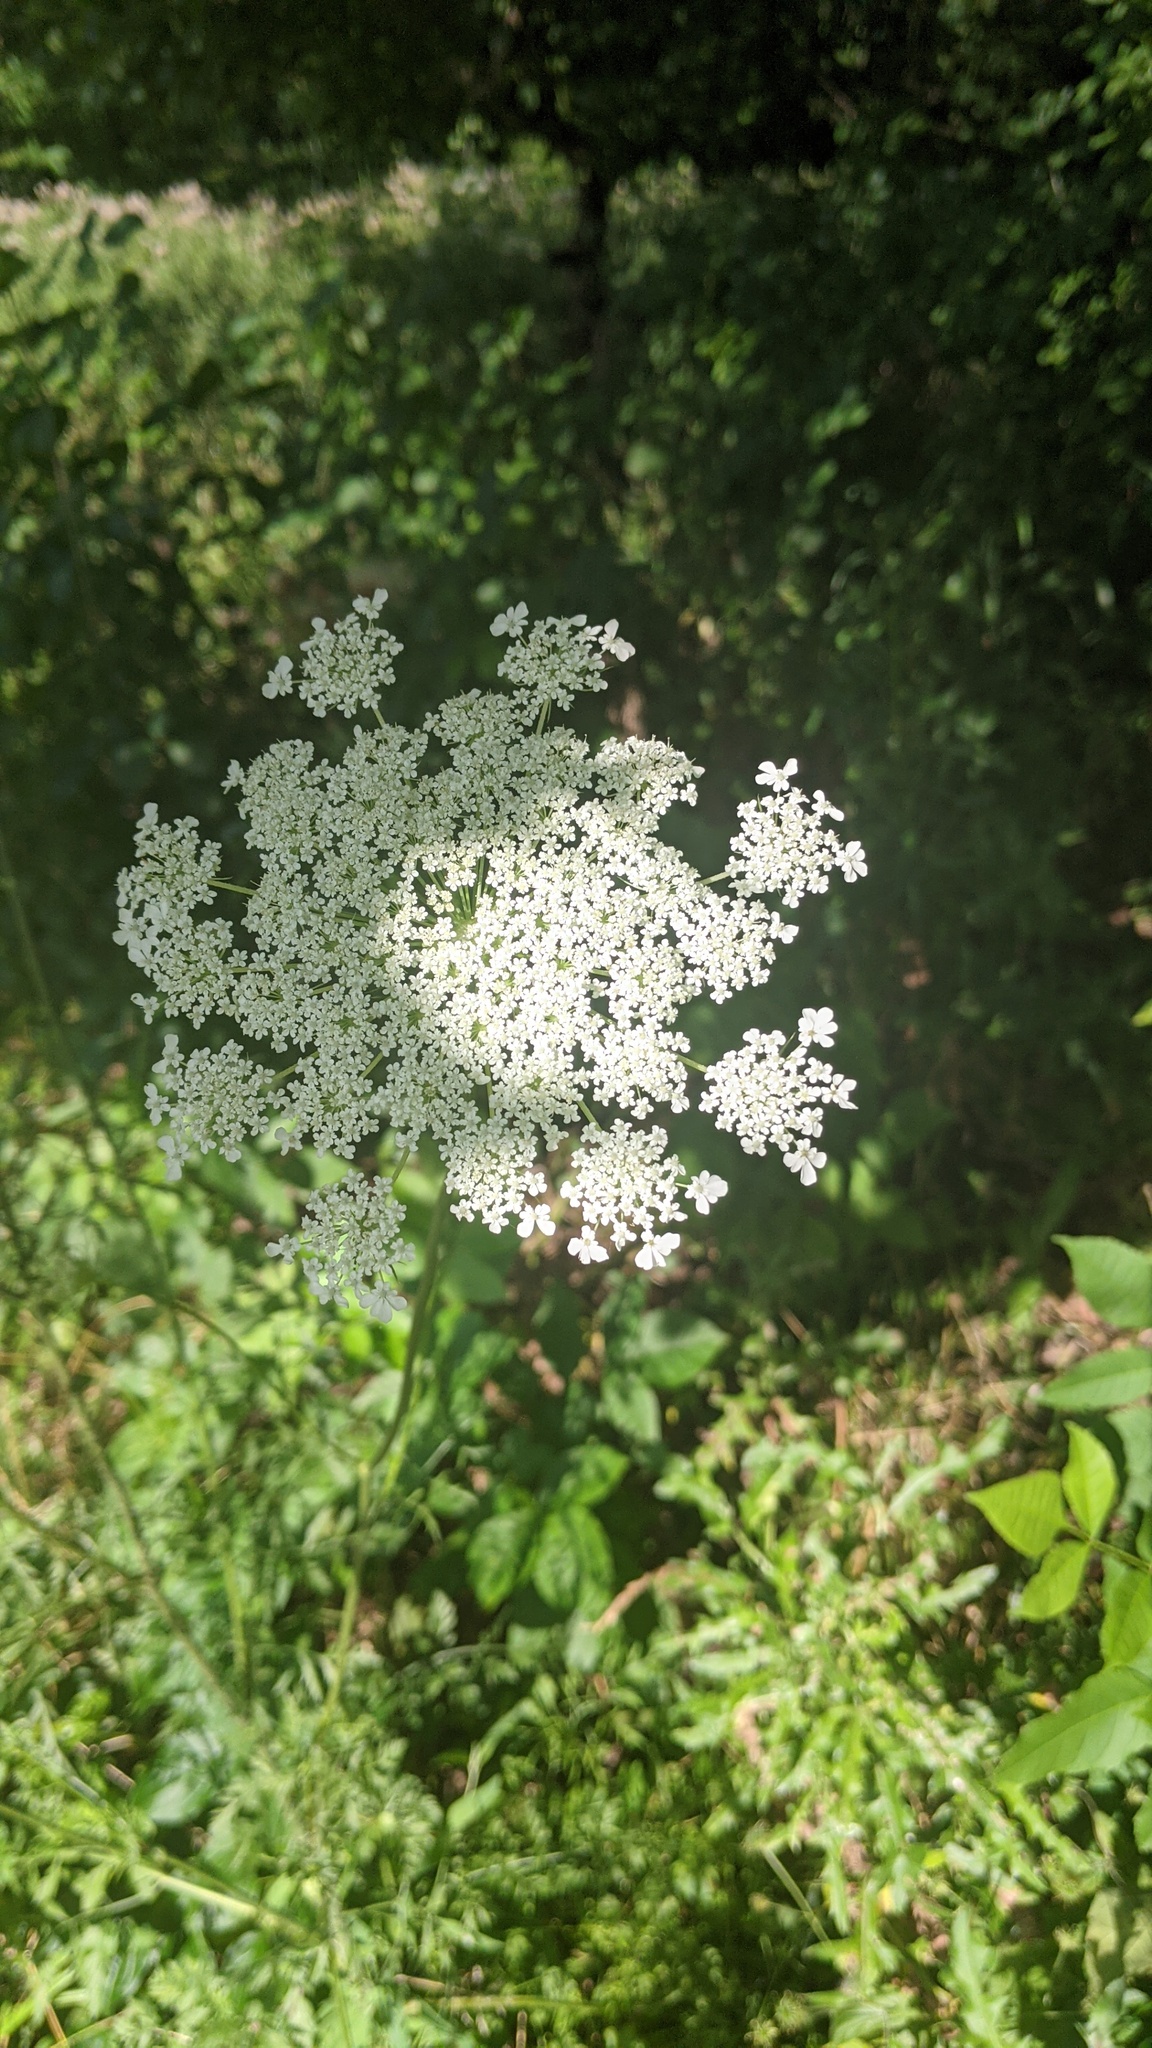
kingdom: Plantae
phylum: Tracheophyta
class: Magnoliopsida
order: Apiales
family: Apiaceae
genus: Daucus
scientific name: Daucus carota
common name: Wild carrot
